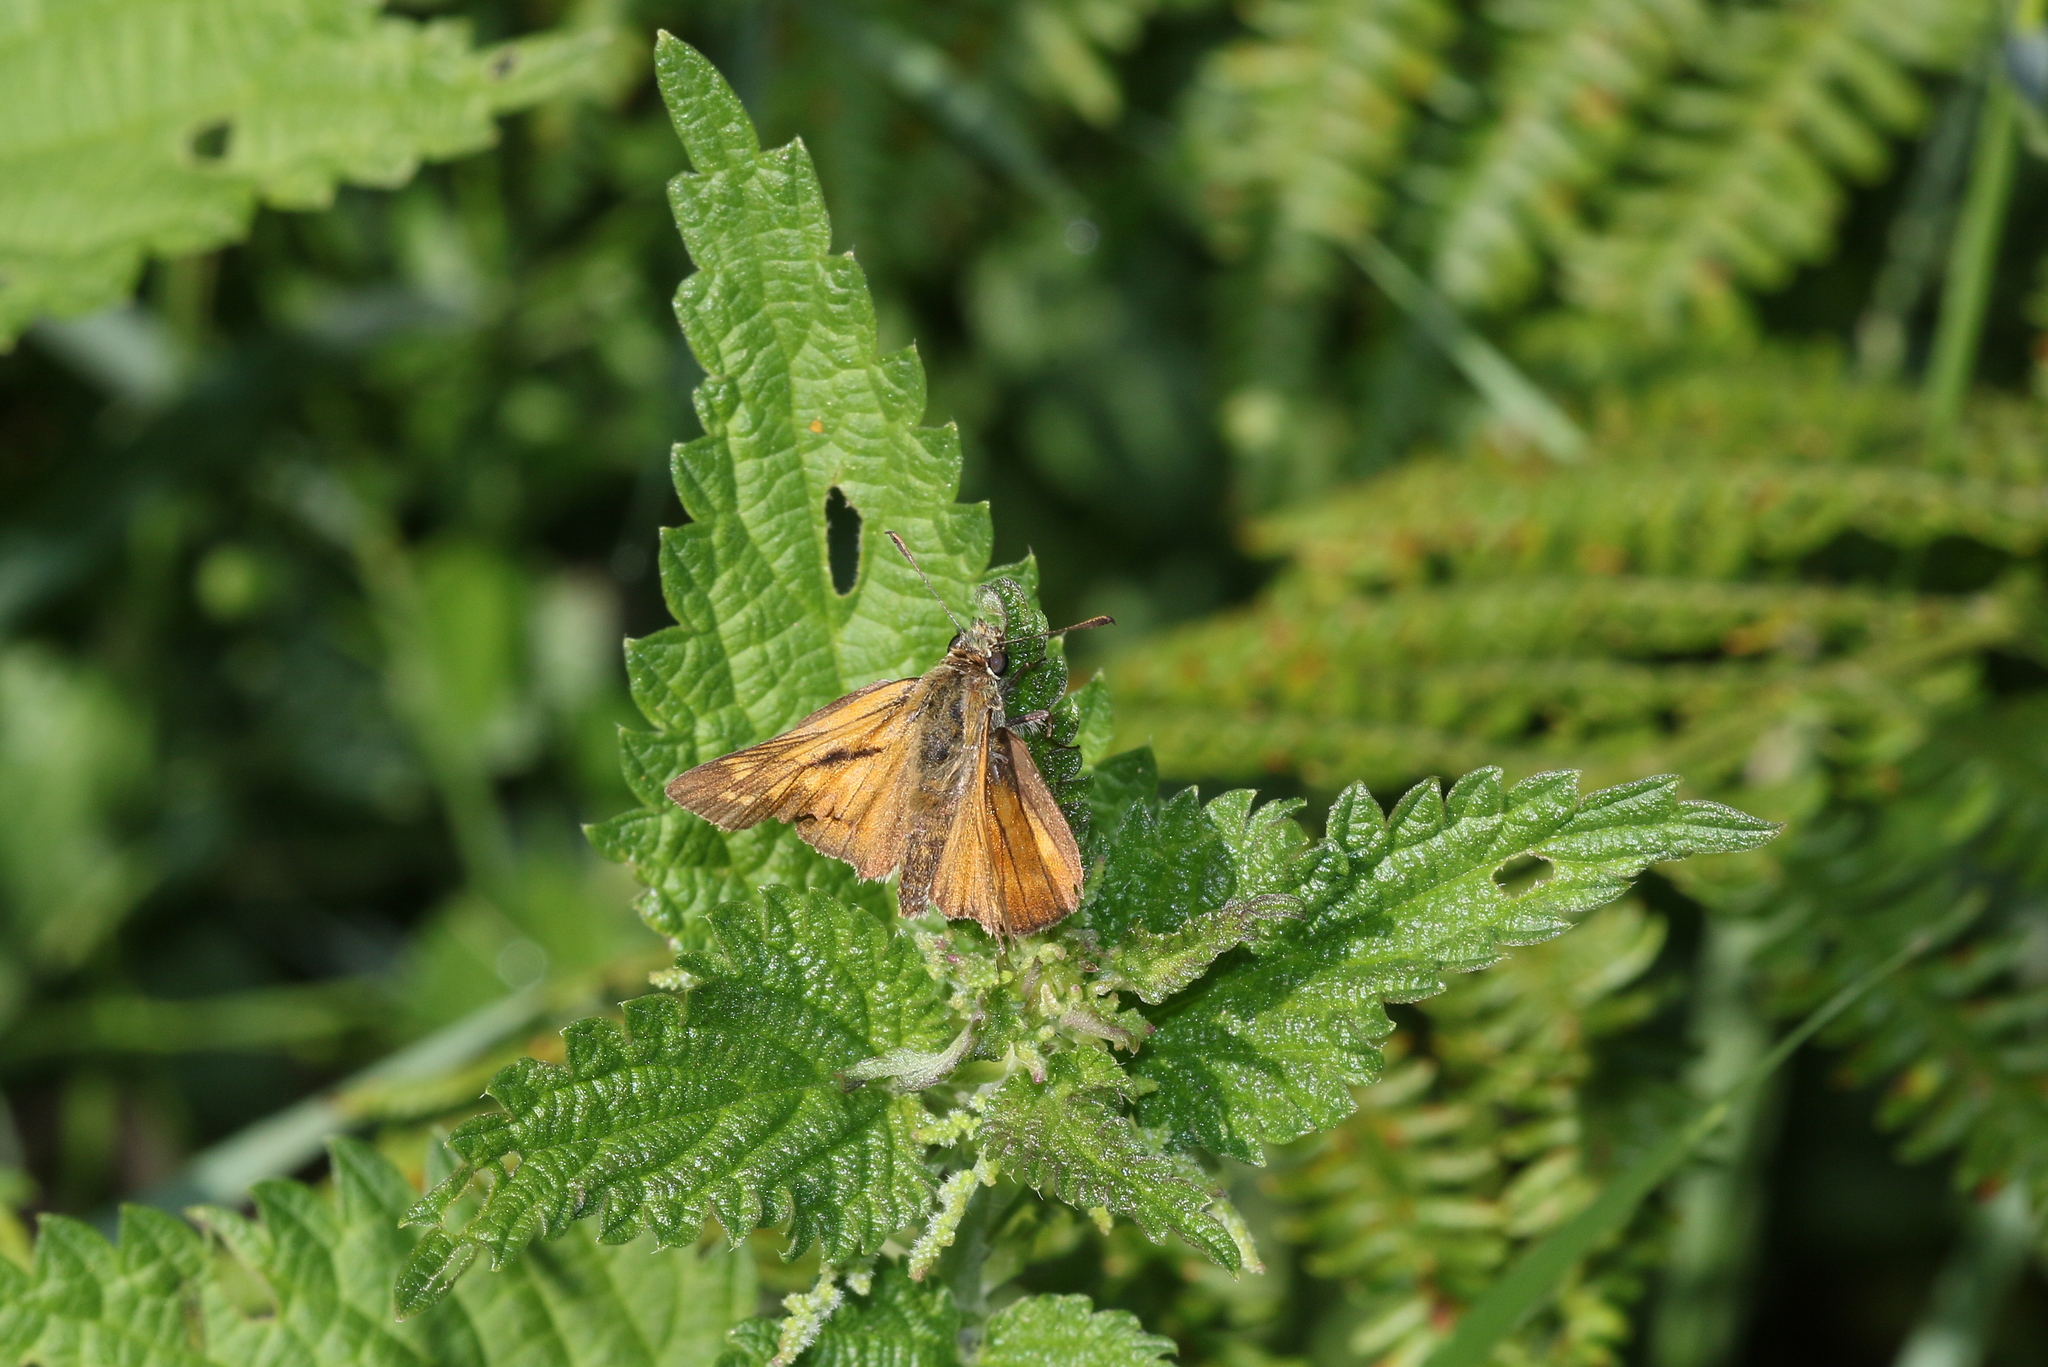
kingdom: Animalia
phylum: Arthropoda
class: Insecta
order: Lepidoptera
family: Hesperiidae
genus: Ochlodes
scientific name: Ochlodes venata
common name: Large skipper
